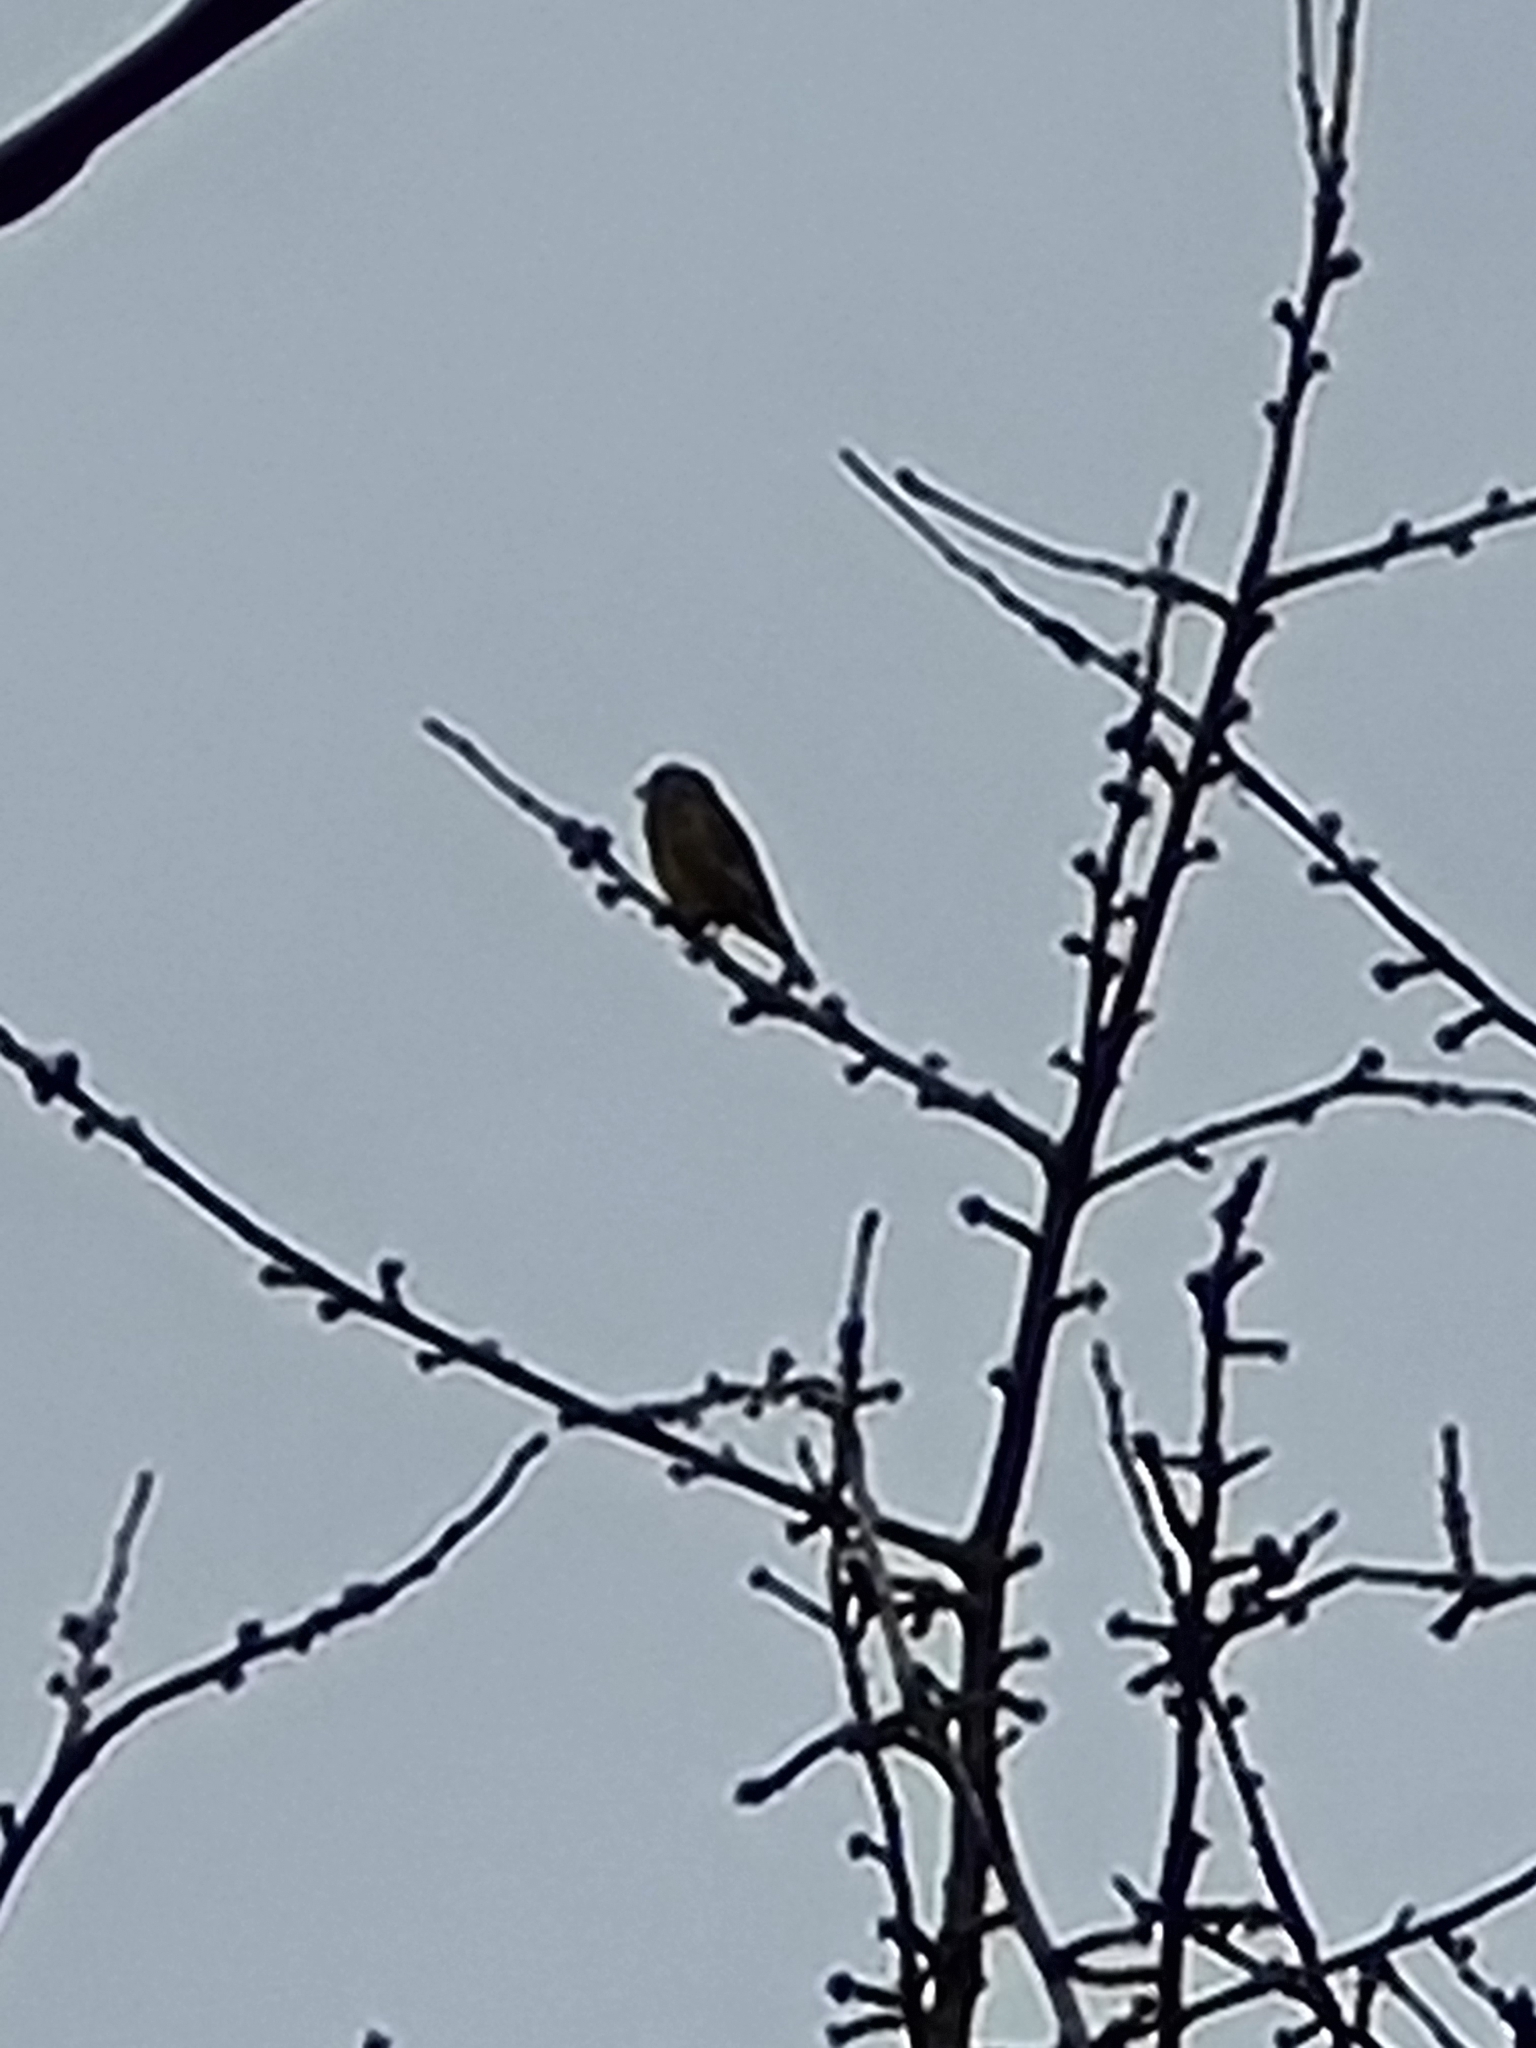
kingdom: Plantae
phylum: Tracheophyta
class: Liliopsida
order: Poales
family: Poaceae
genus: Chloris
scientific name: Chloris chloris
